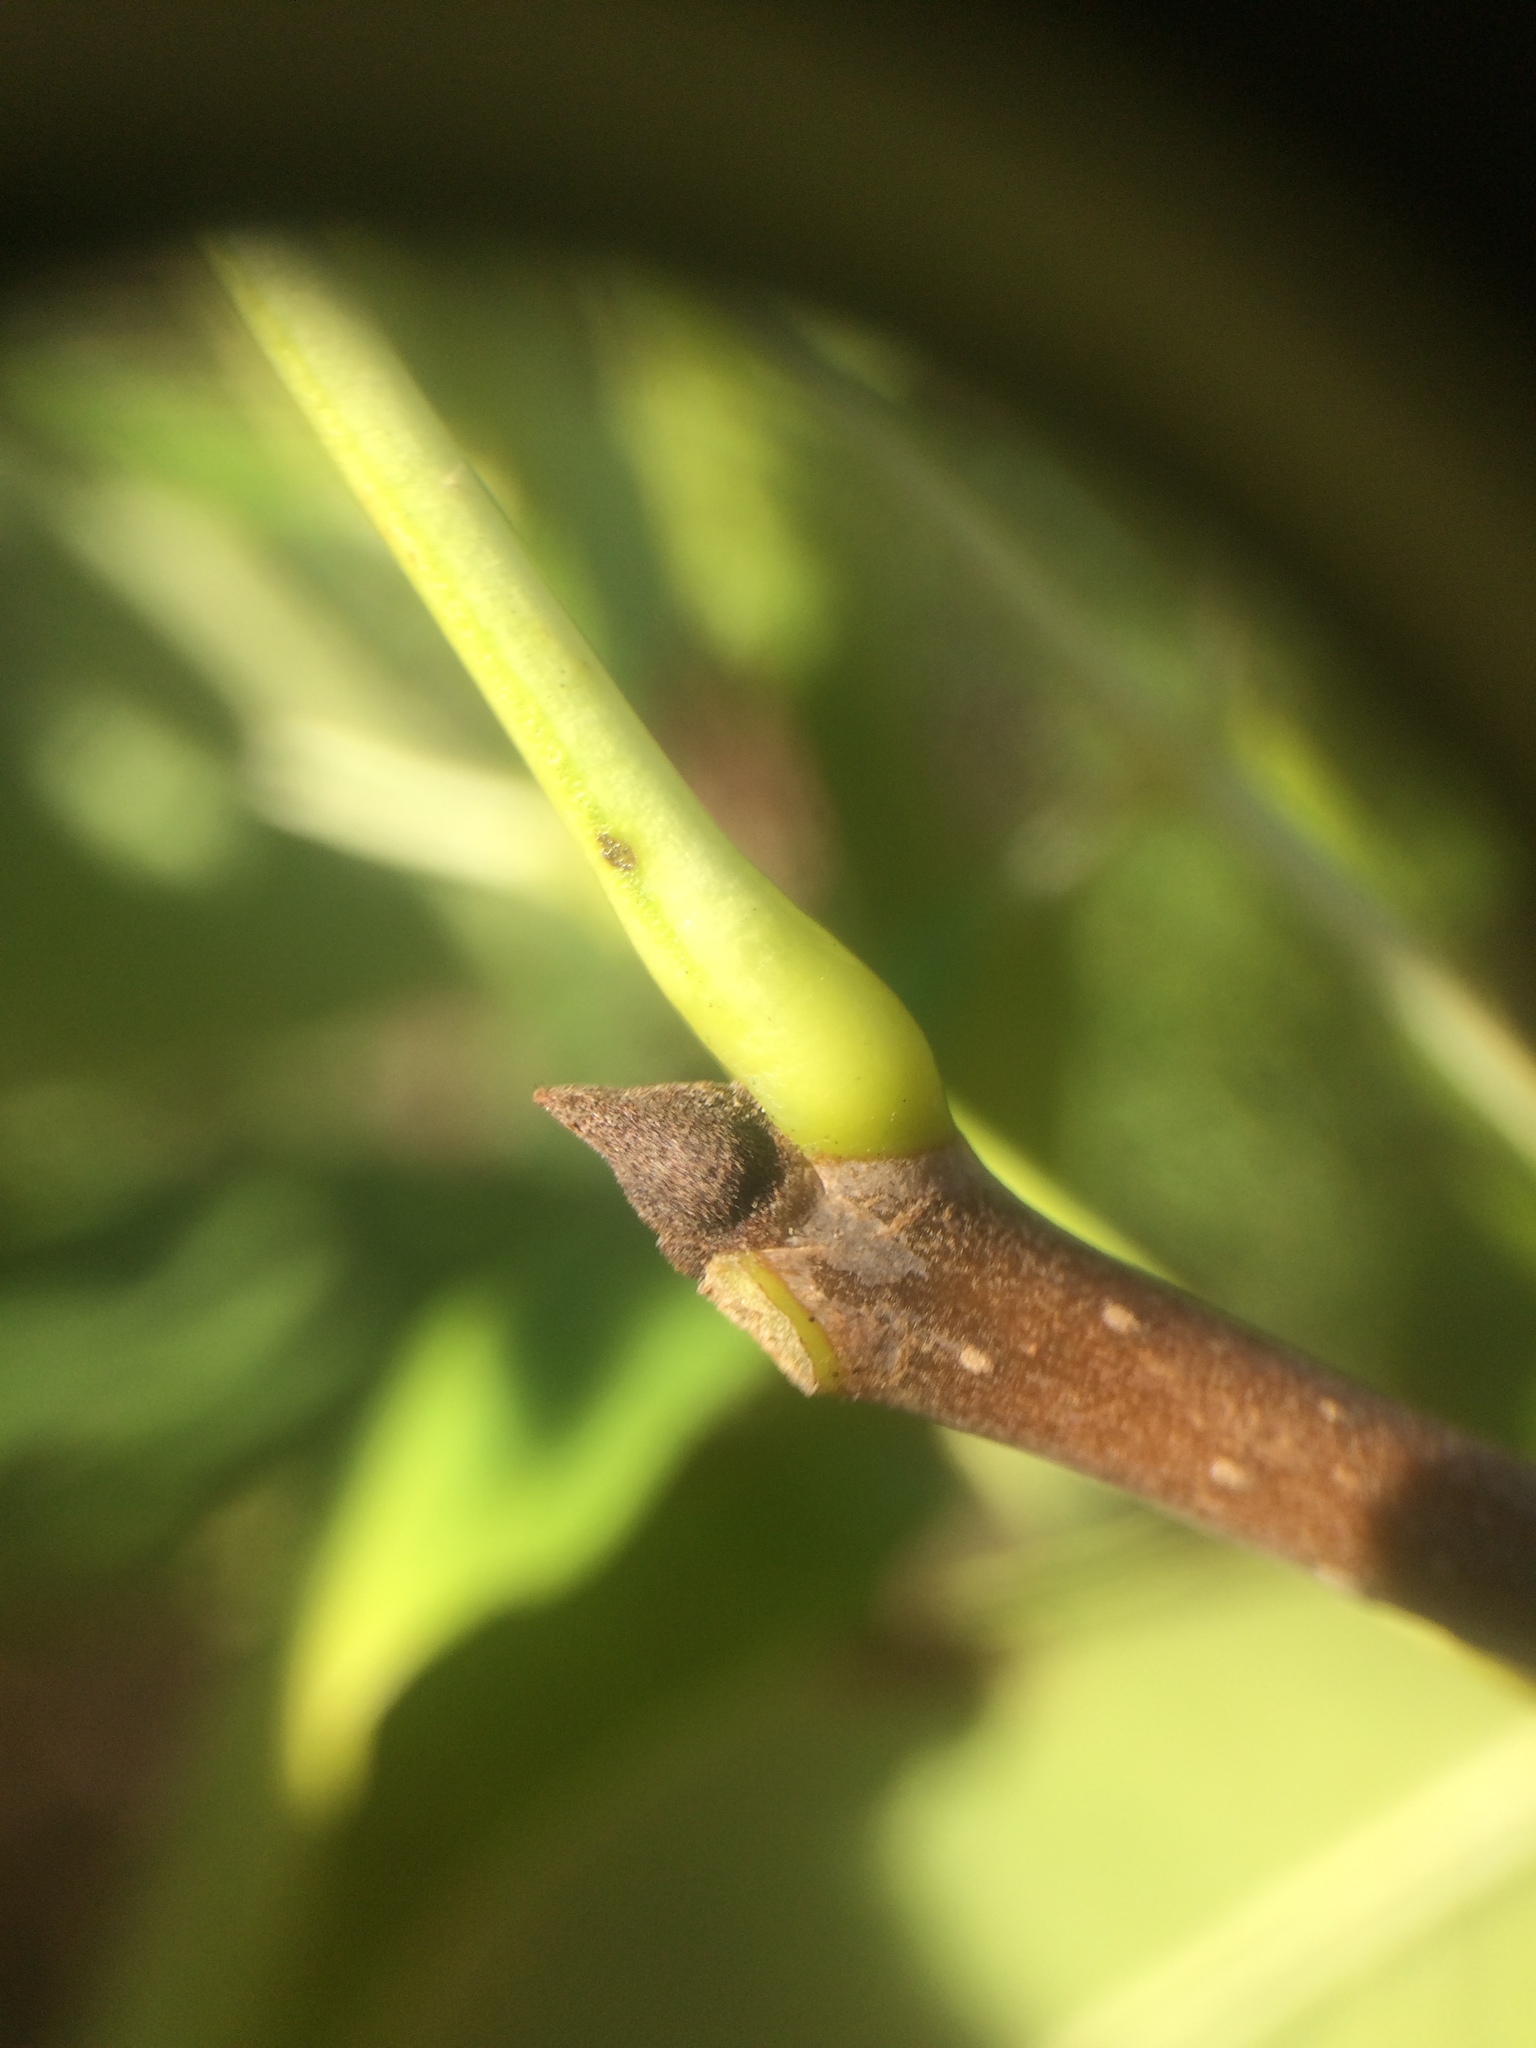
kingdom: Plantae
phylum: Tracheophyta
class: Magnoliopsida
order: Lamiales
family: Oleaceae
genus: Fraxinus
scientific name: Fraxinus pennsylvanica
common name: Green ash
